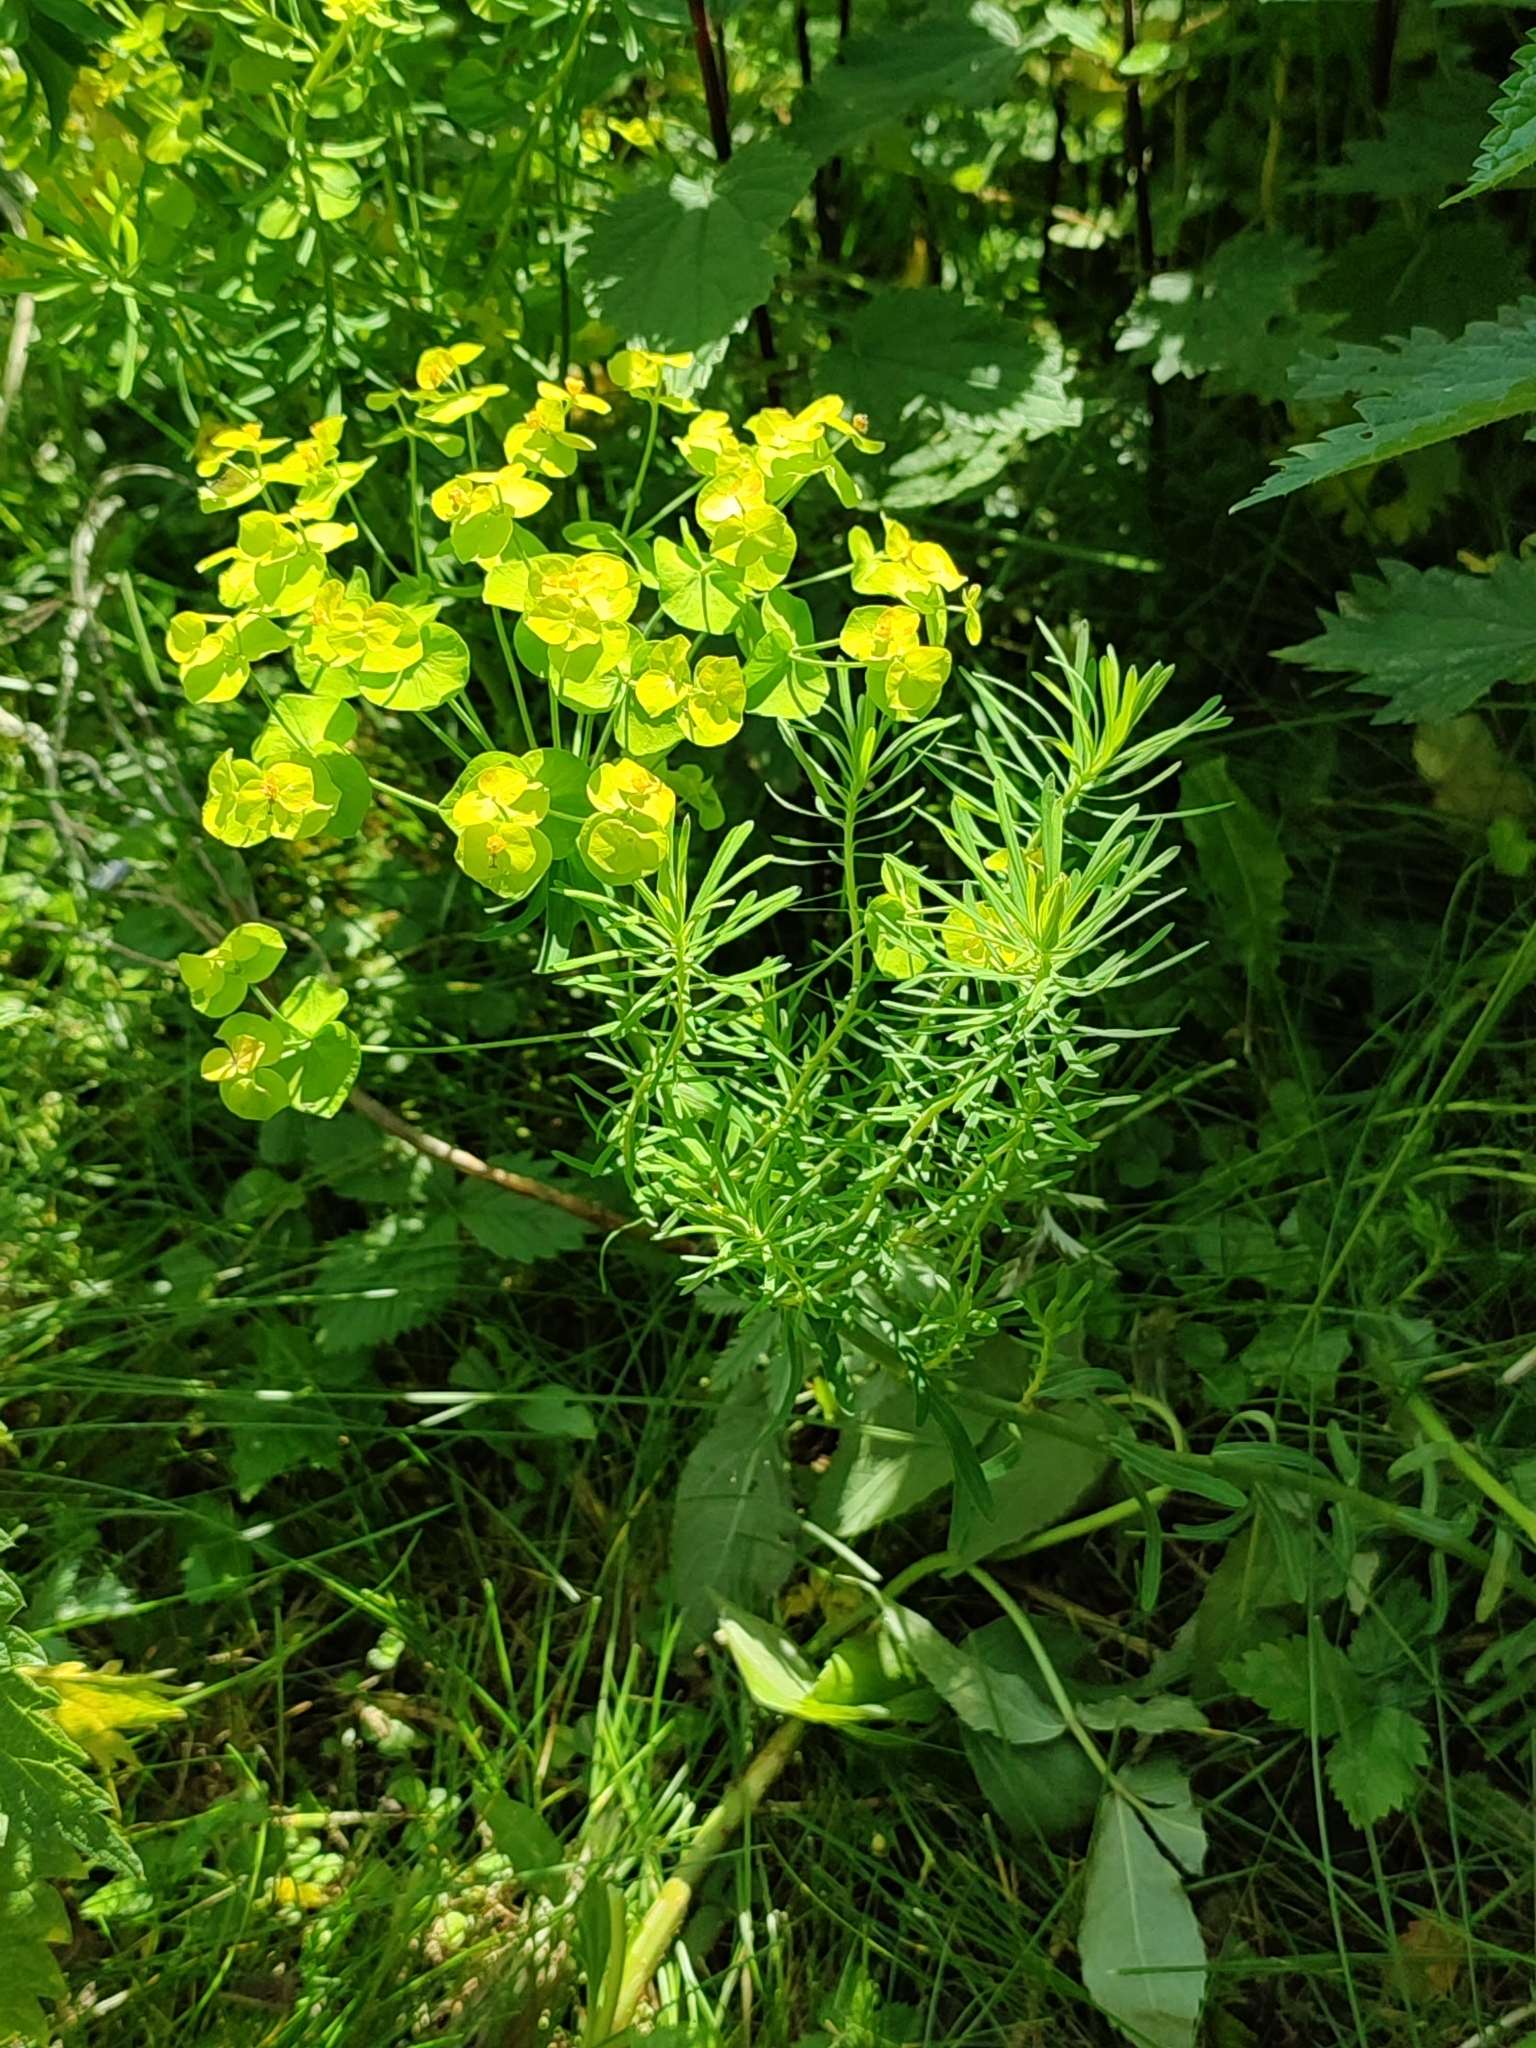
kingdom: Plantae
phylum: Tracheophyta
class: Magnoliopsida
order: Malpighiales
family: Euphorbiaceae
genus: Euphorbia
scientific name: Euphorbia cyparissias
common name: Cypress spurge
